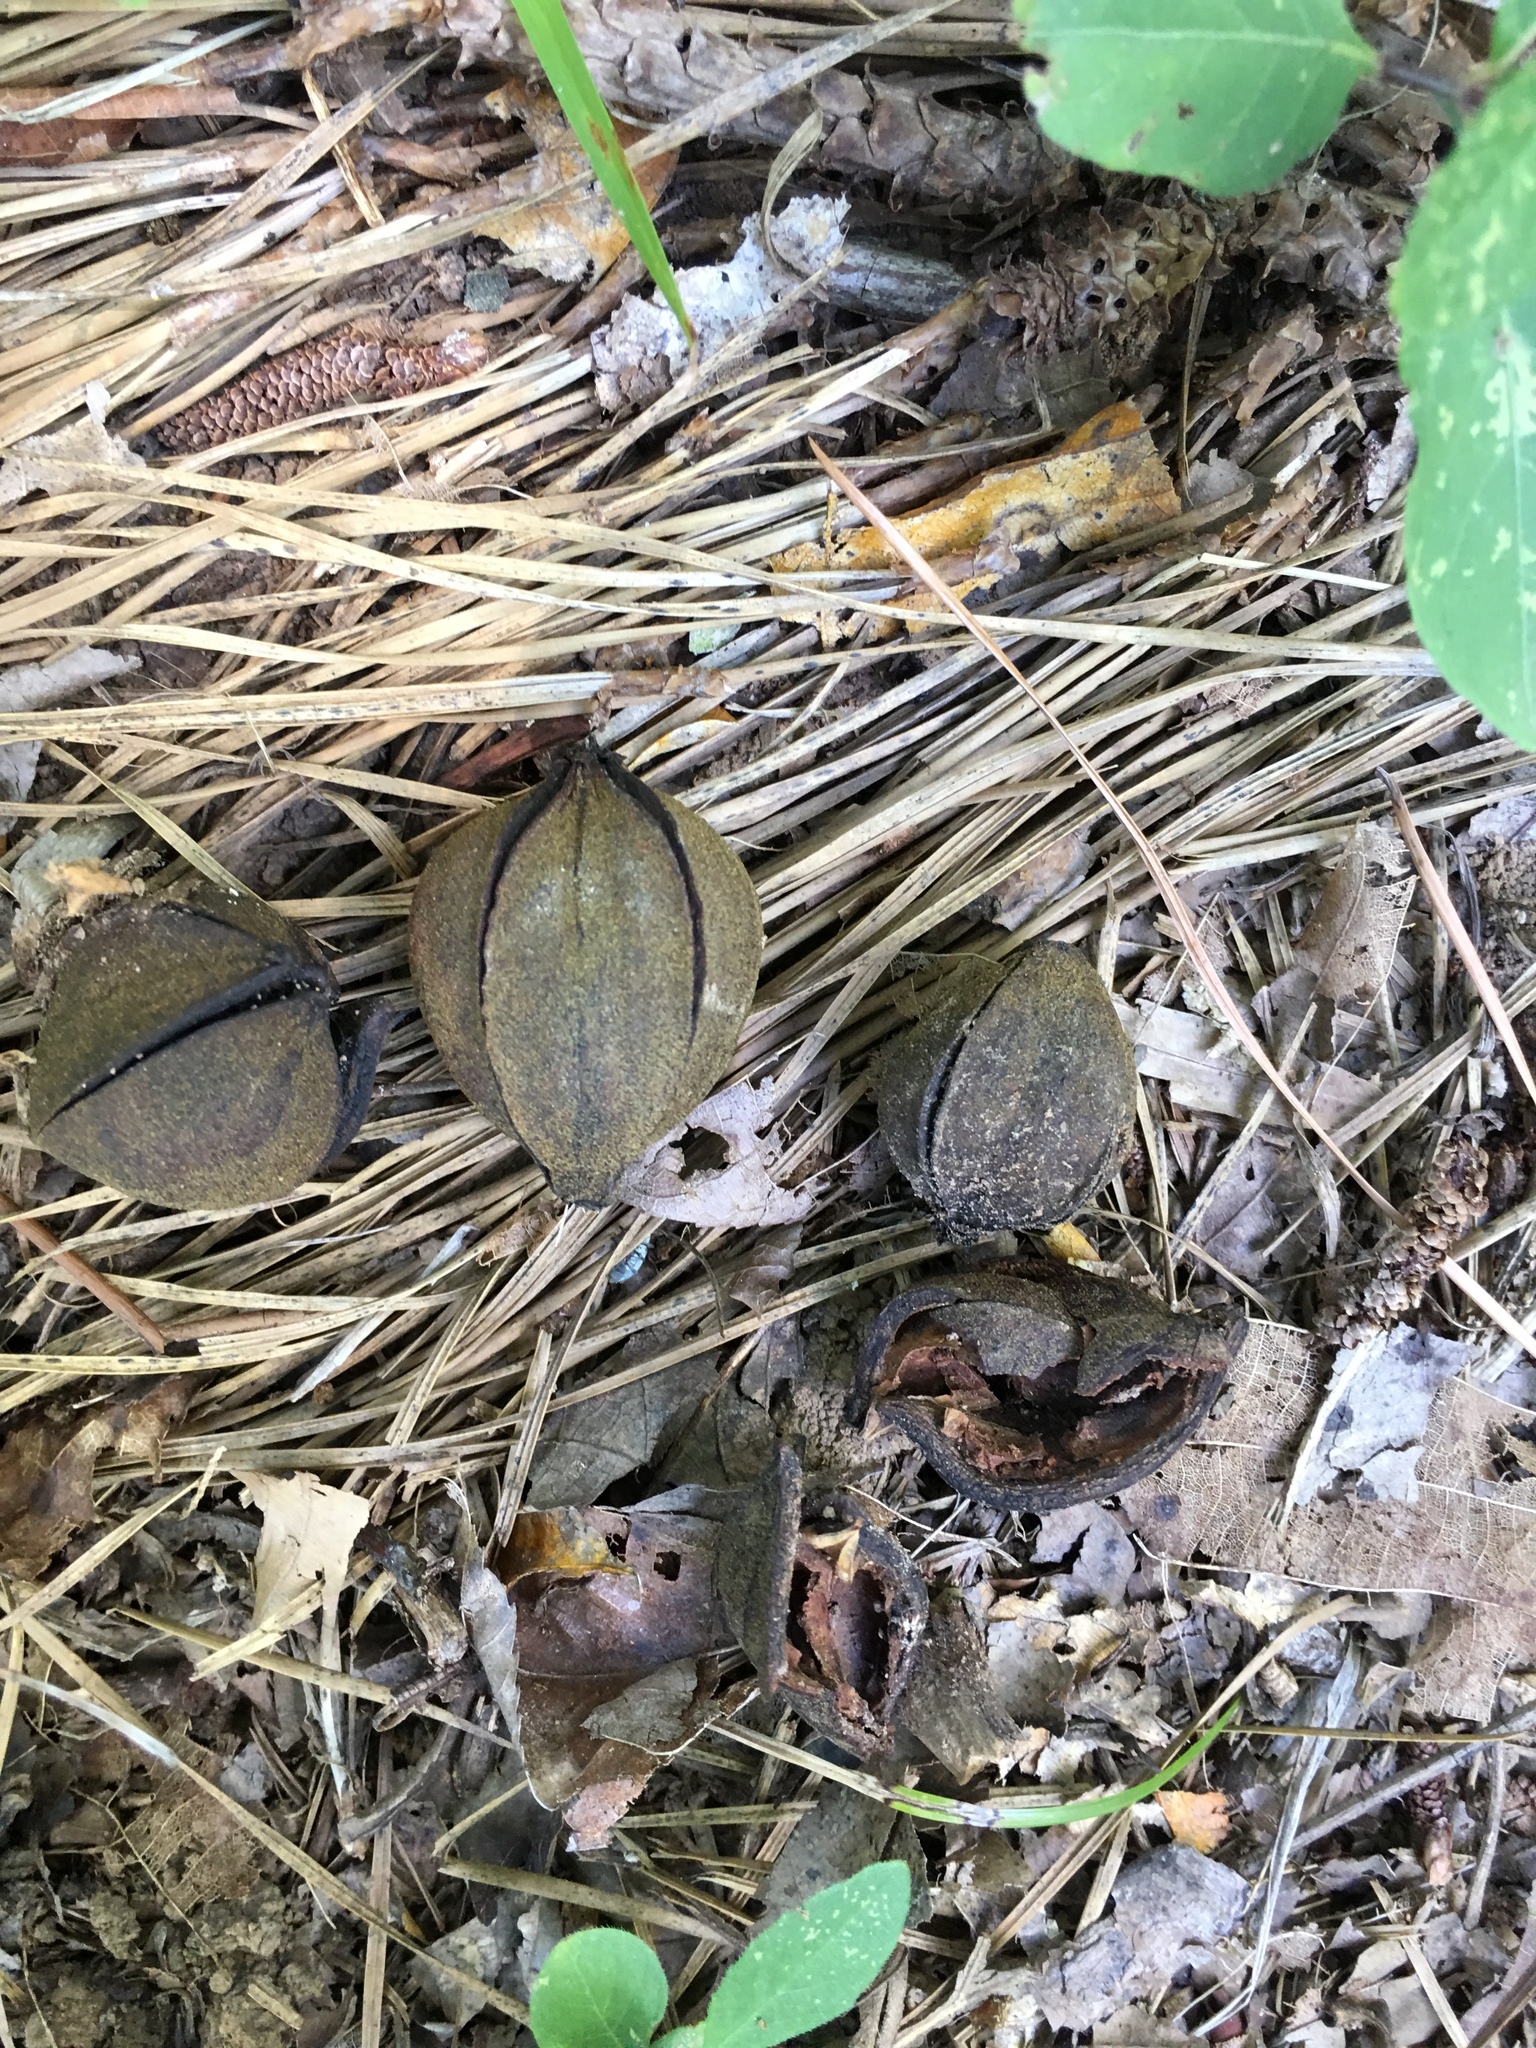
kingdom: Plantae
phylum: Tracheophyta
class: Magnoliopsida
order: Fagales
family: Juglandaceae
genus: Carya
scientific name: Carya glabra
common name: Pignut hickory
